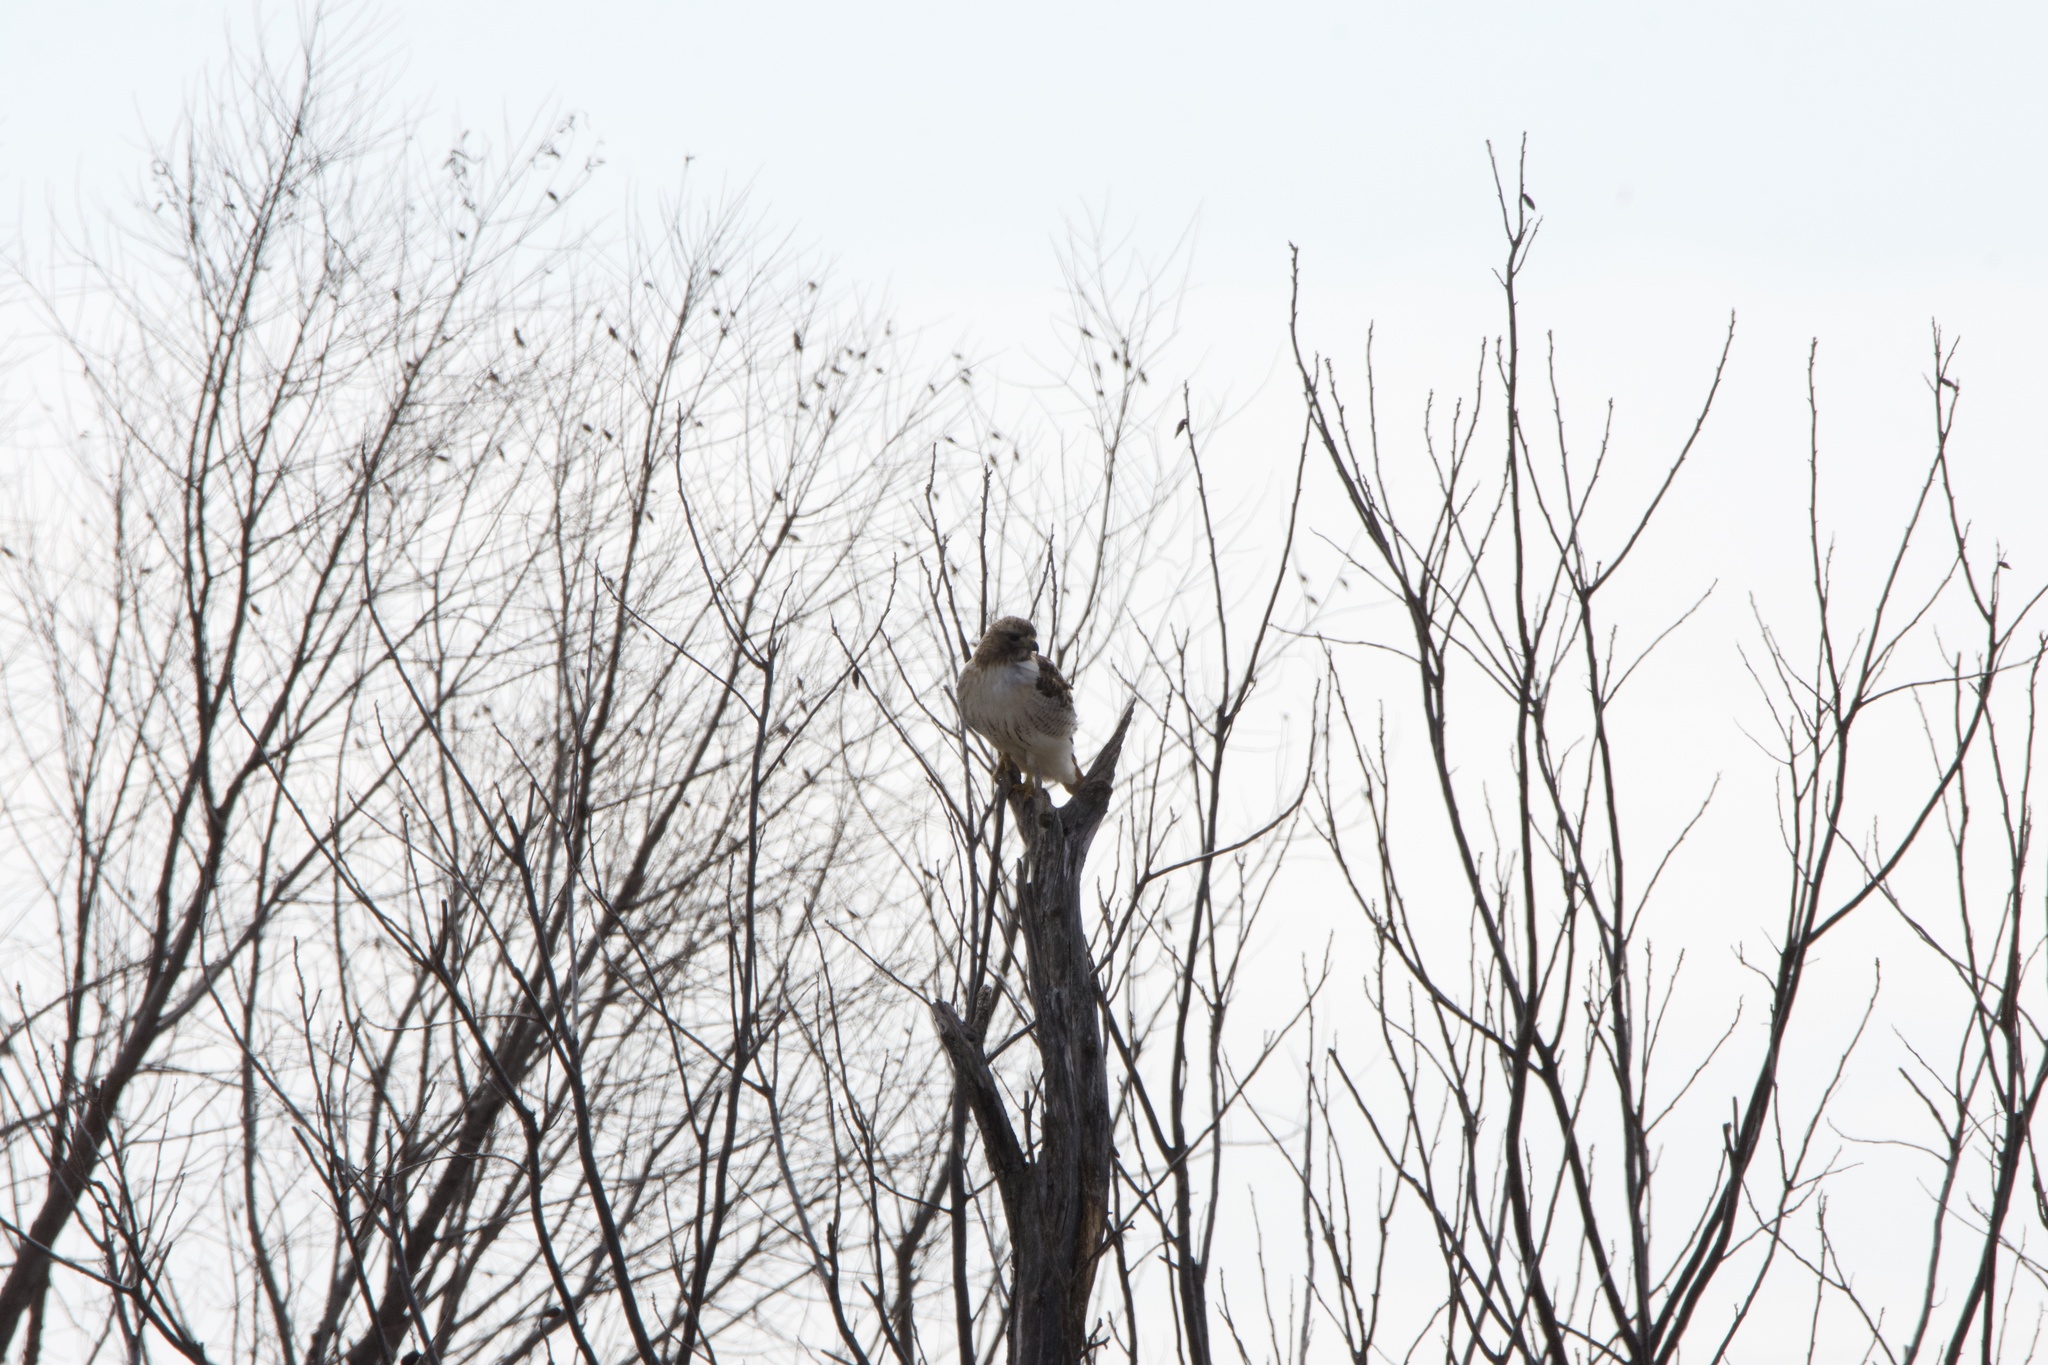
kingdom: Animalia
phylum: Chordata
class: Aves
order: Accipitriformes
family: Accipitridae
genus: Buteo
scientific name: Buteo jamaicensis
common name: Red-tailed hawk
